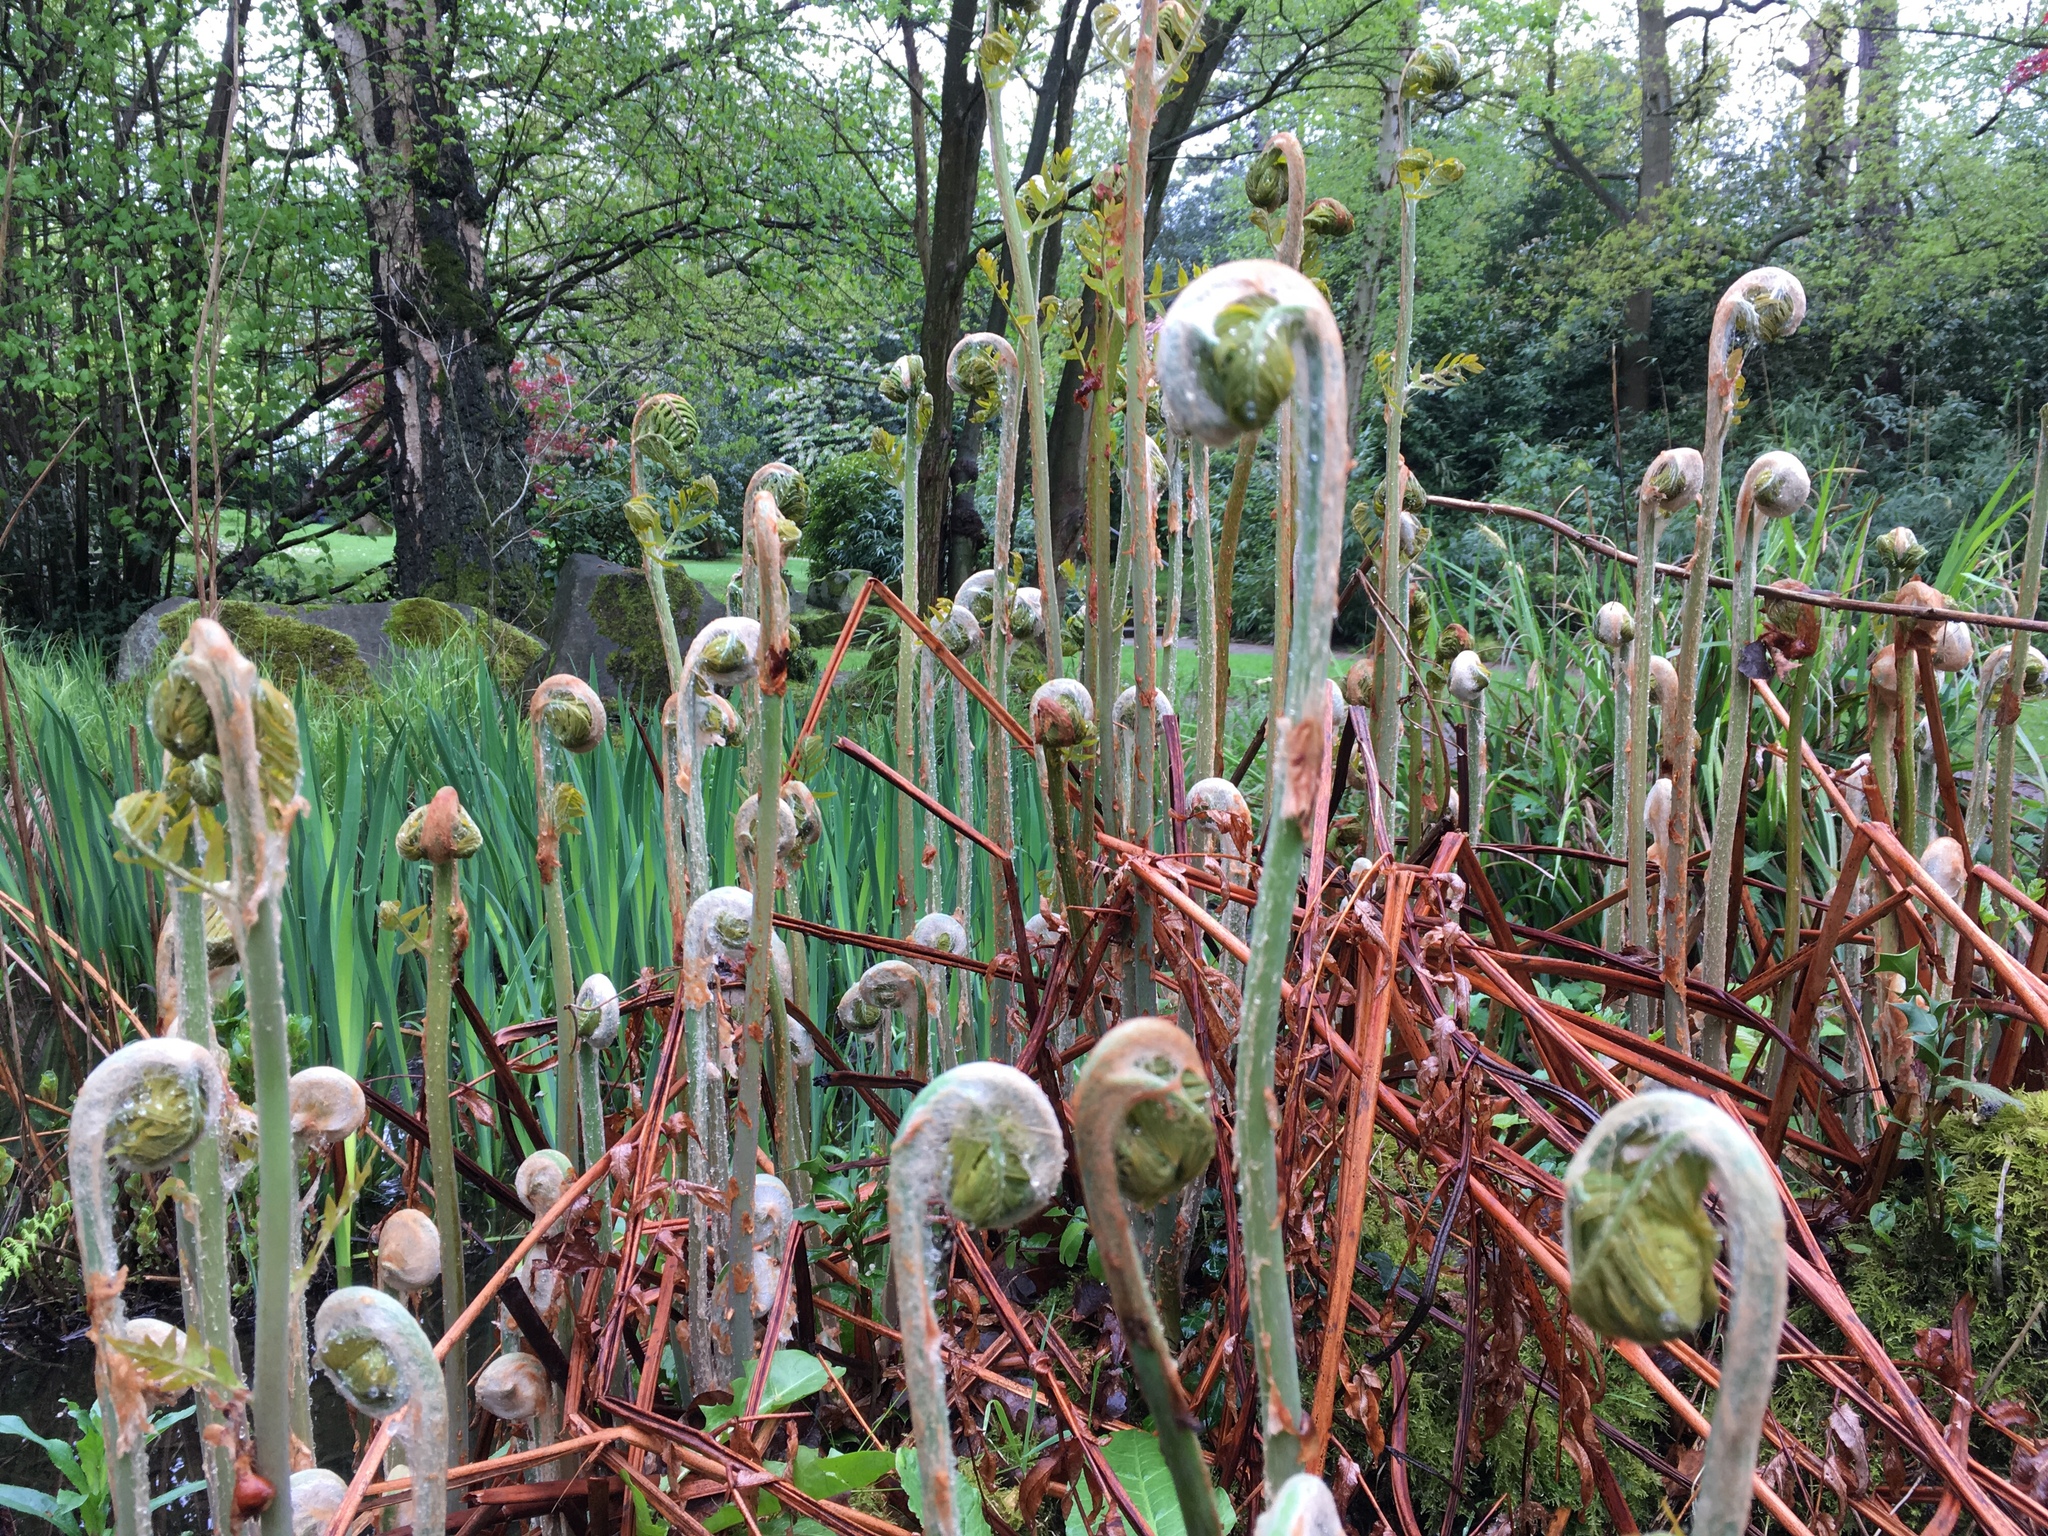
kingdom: Plantae
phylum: Tracheophyta
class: Polypodiopsida
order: Osmundales
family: Osmundaceae
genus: Osmunda
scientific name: Osmunda regalis
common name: Royal fern
